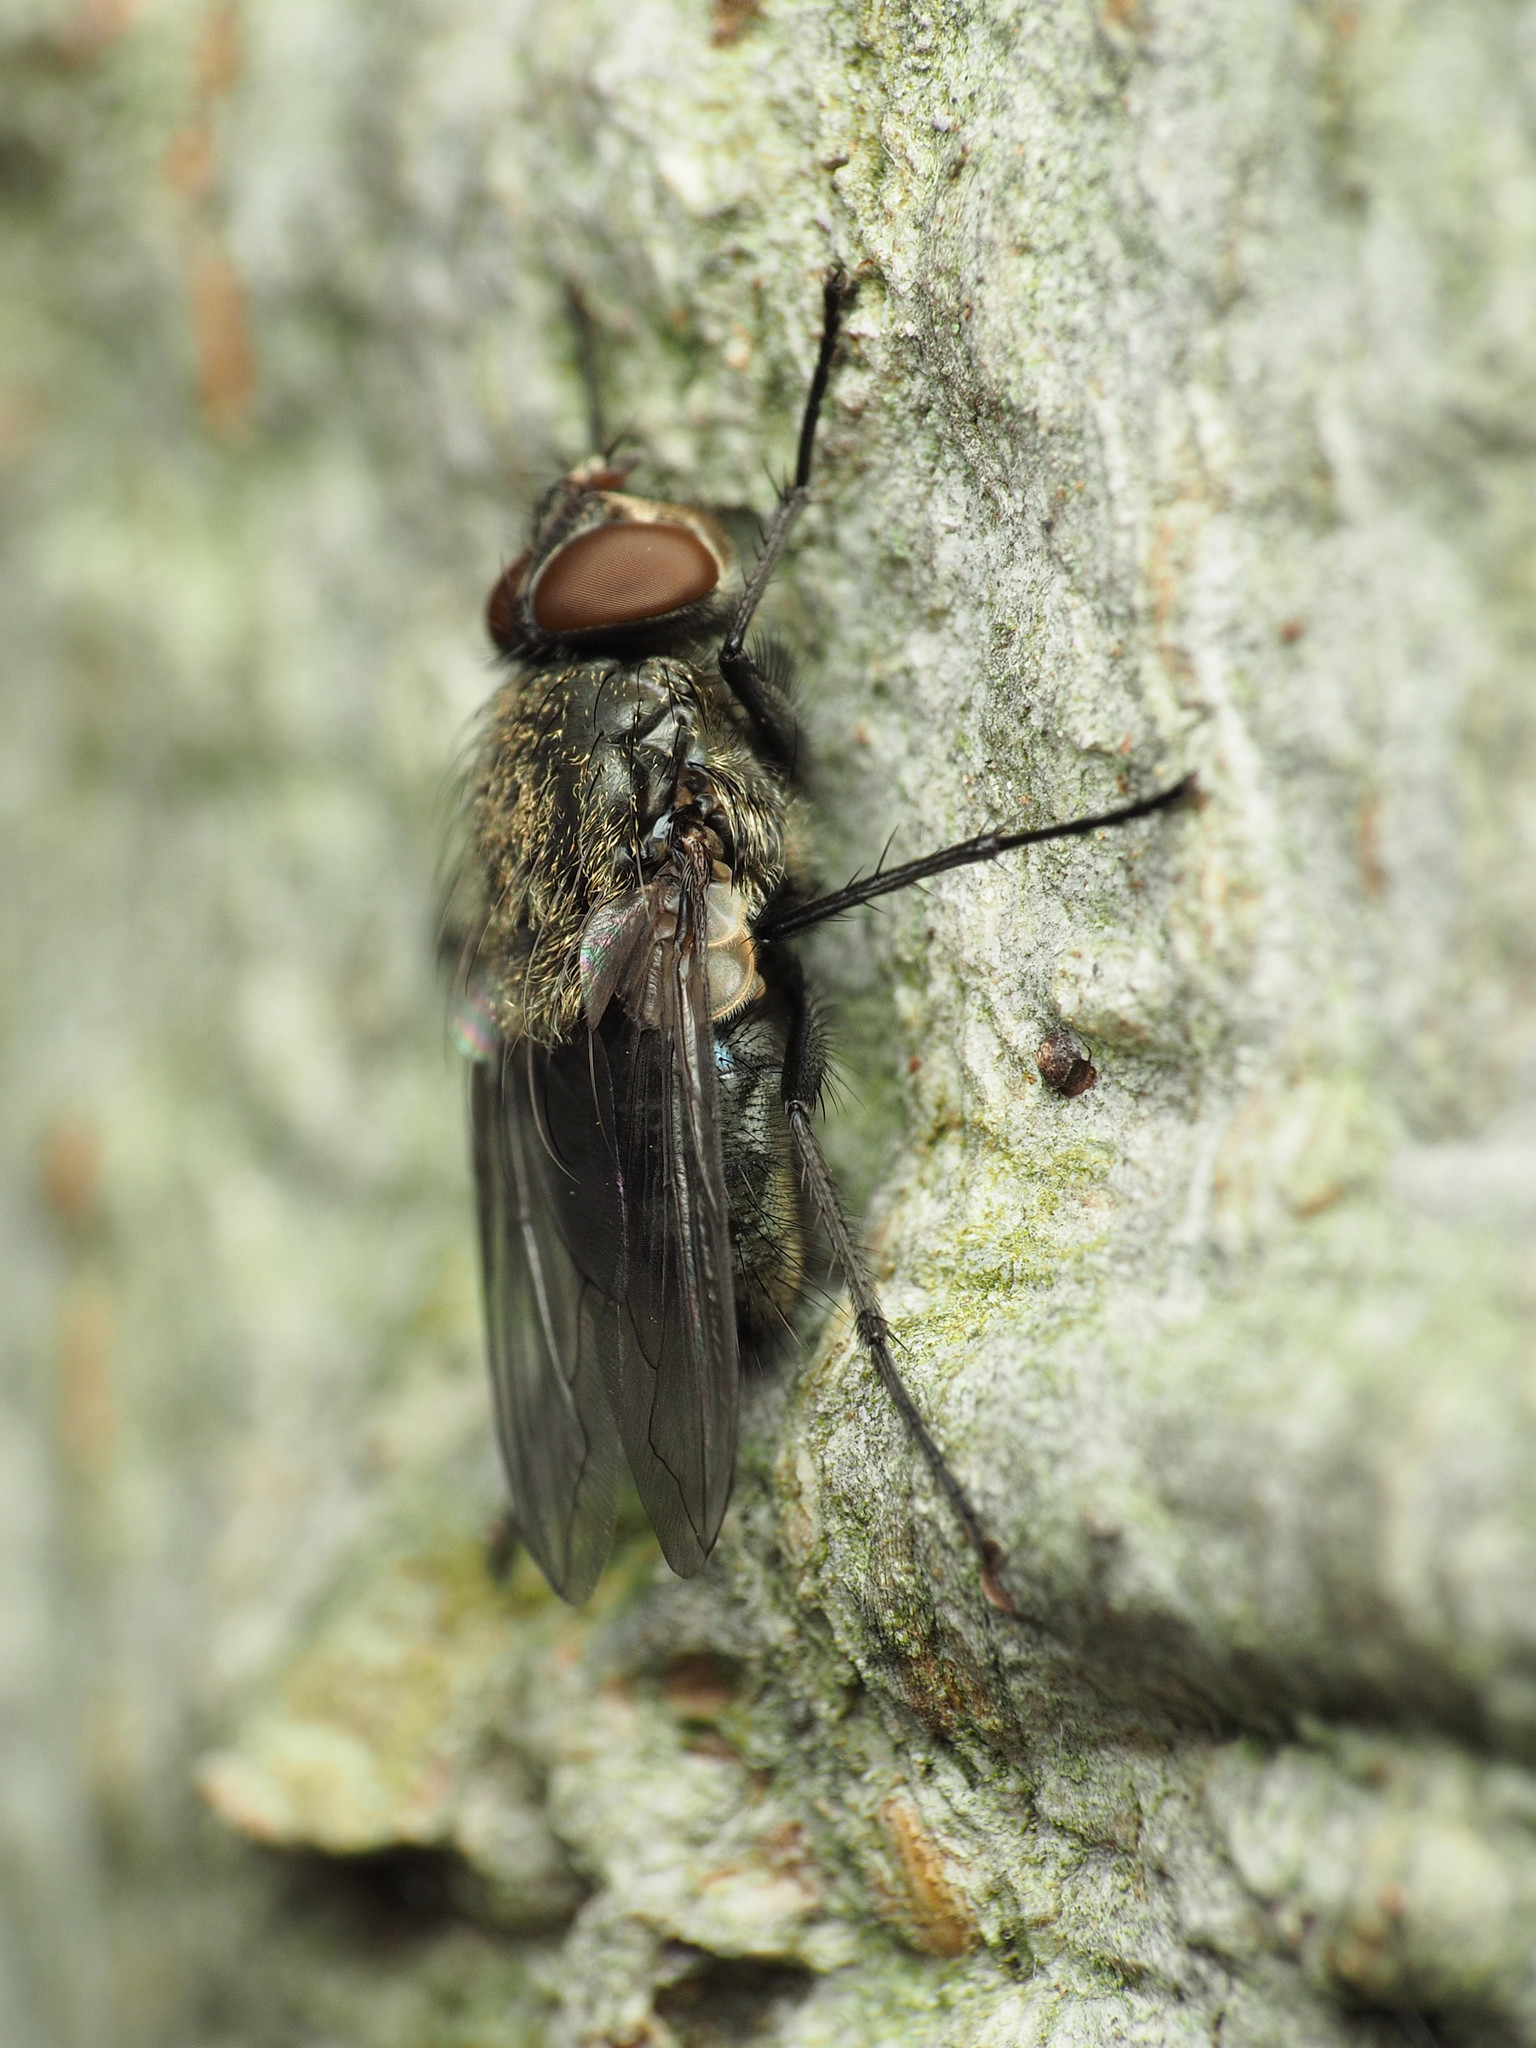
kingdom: Animalia
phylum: Arthropoda
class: Insecta
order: Diptera
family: Polleniidae
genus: Pollenia
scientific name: Pollenia
